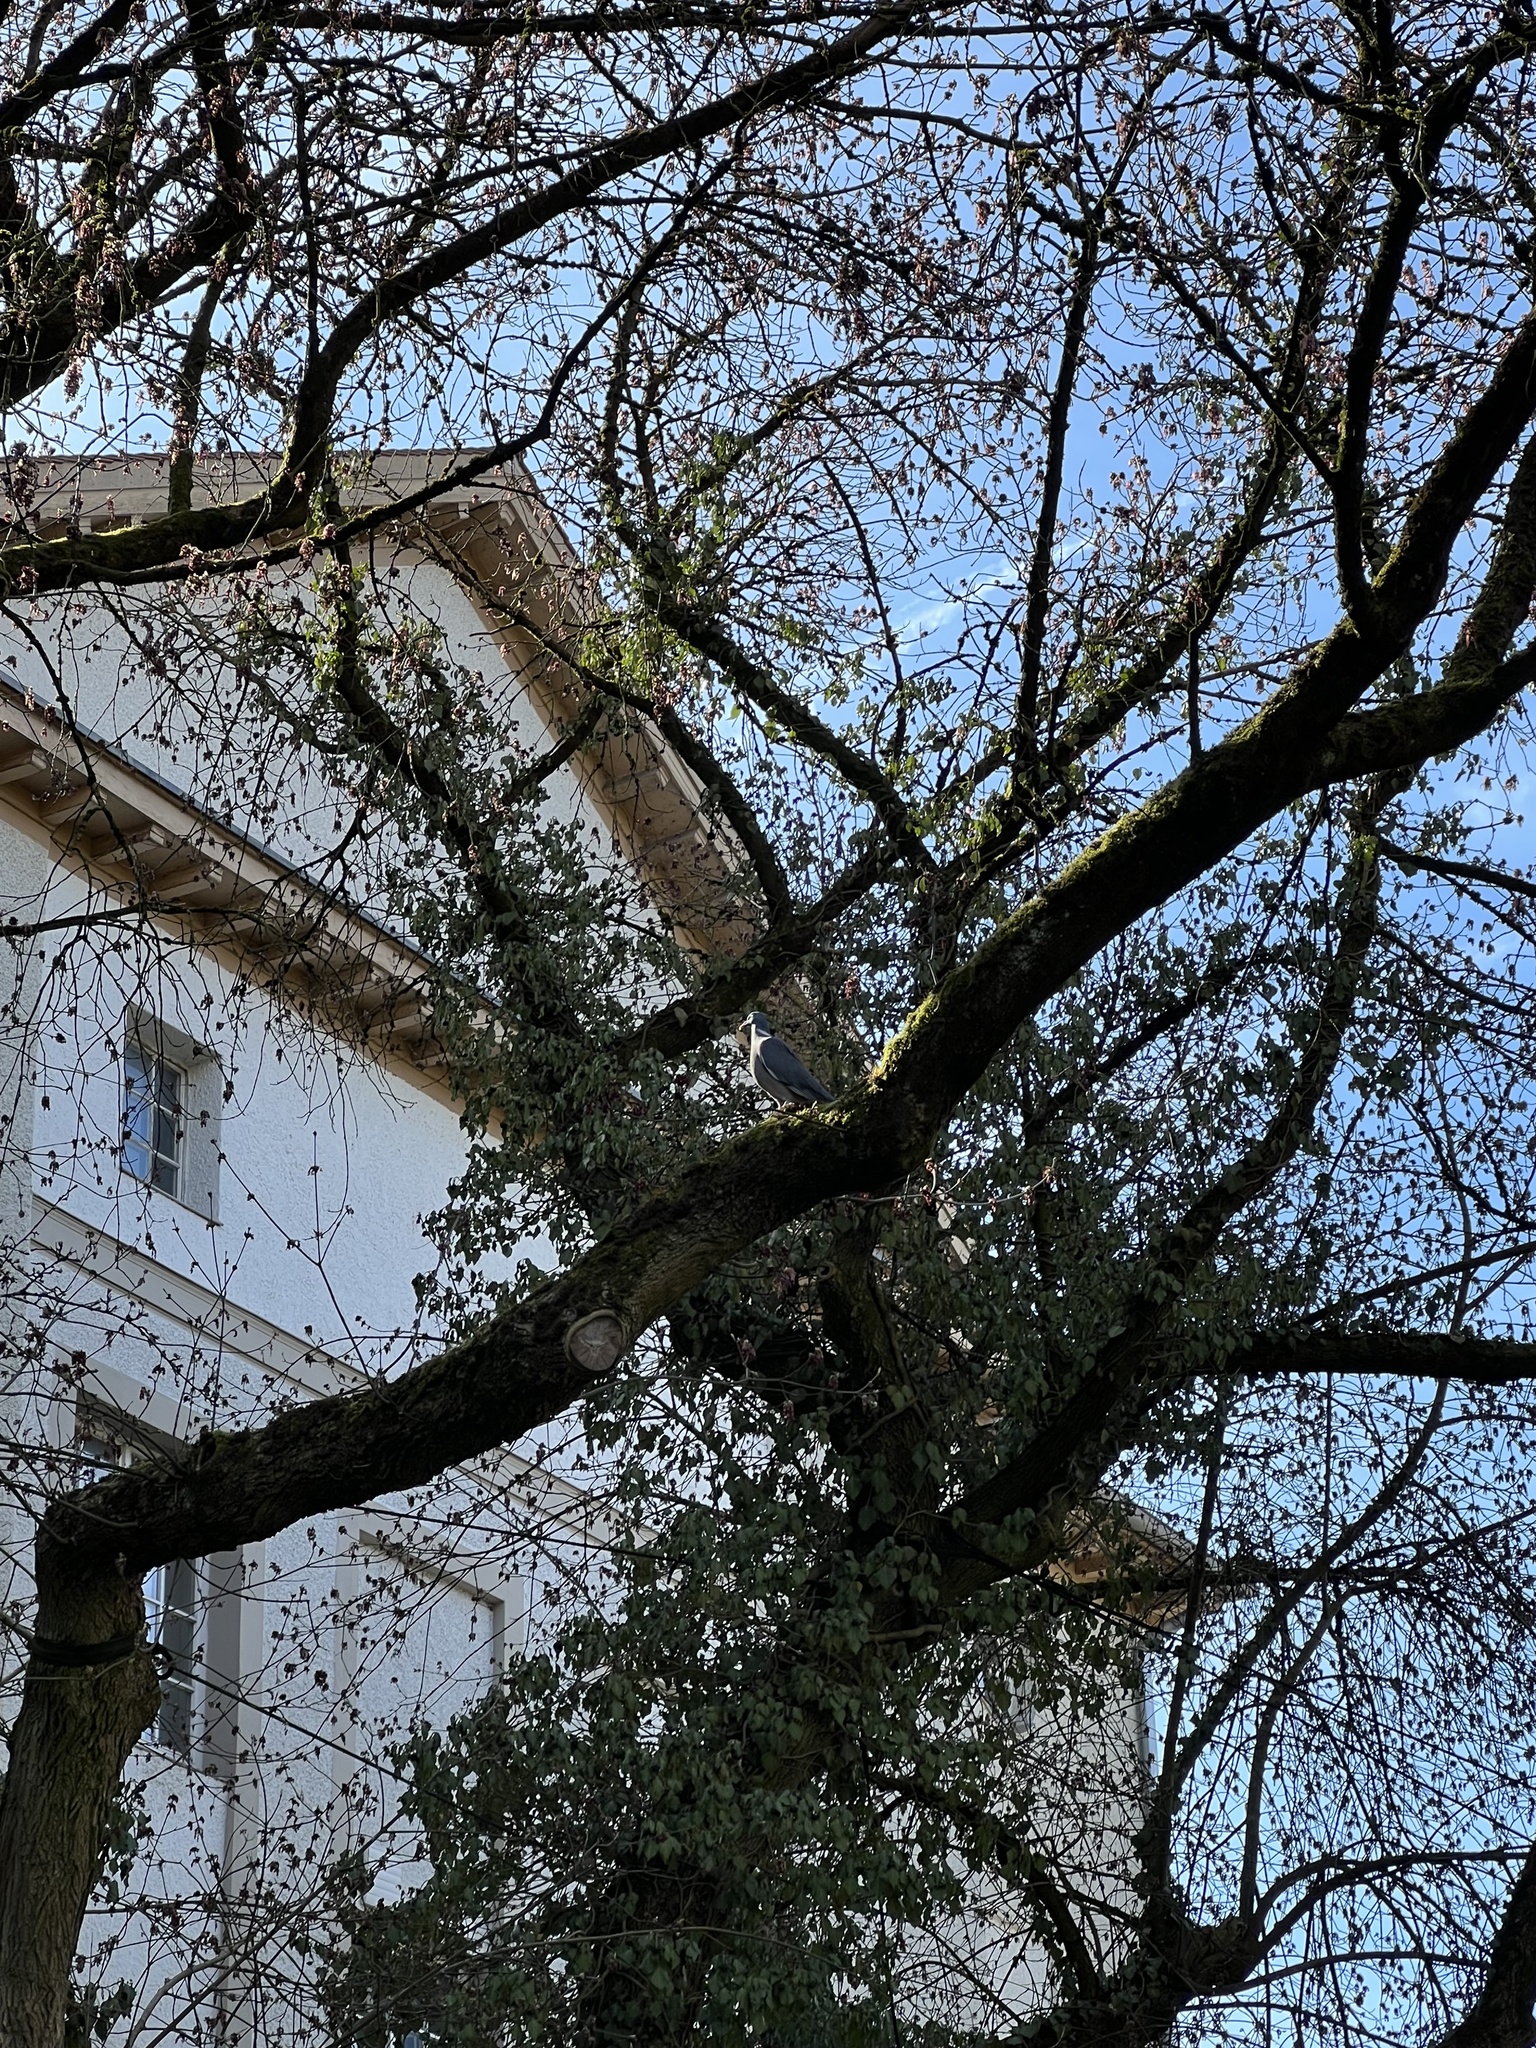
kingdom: Animalia
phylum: Chordata
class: Aves
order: Columbiformes
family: Columbidae
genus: Columba
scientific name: Columba palumbus
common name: Common wood pigeon
